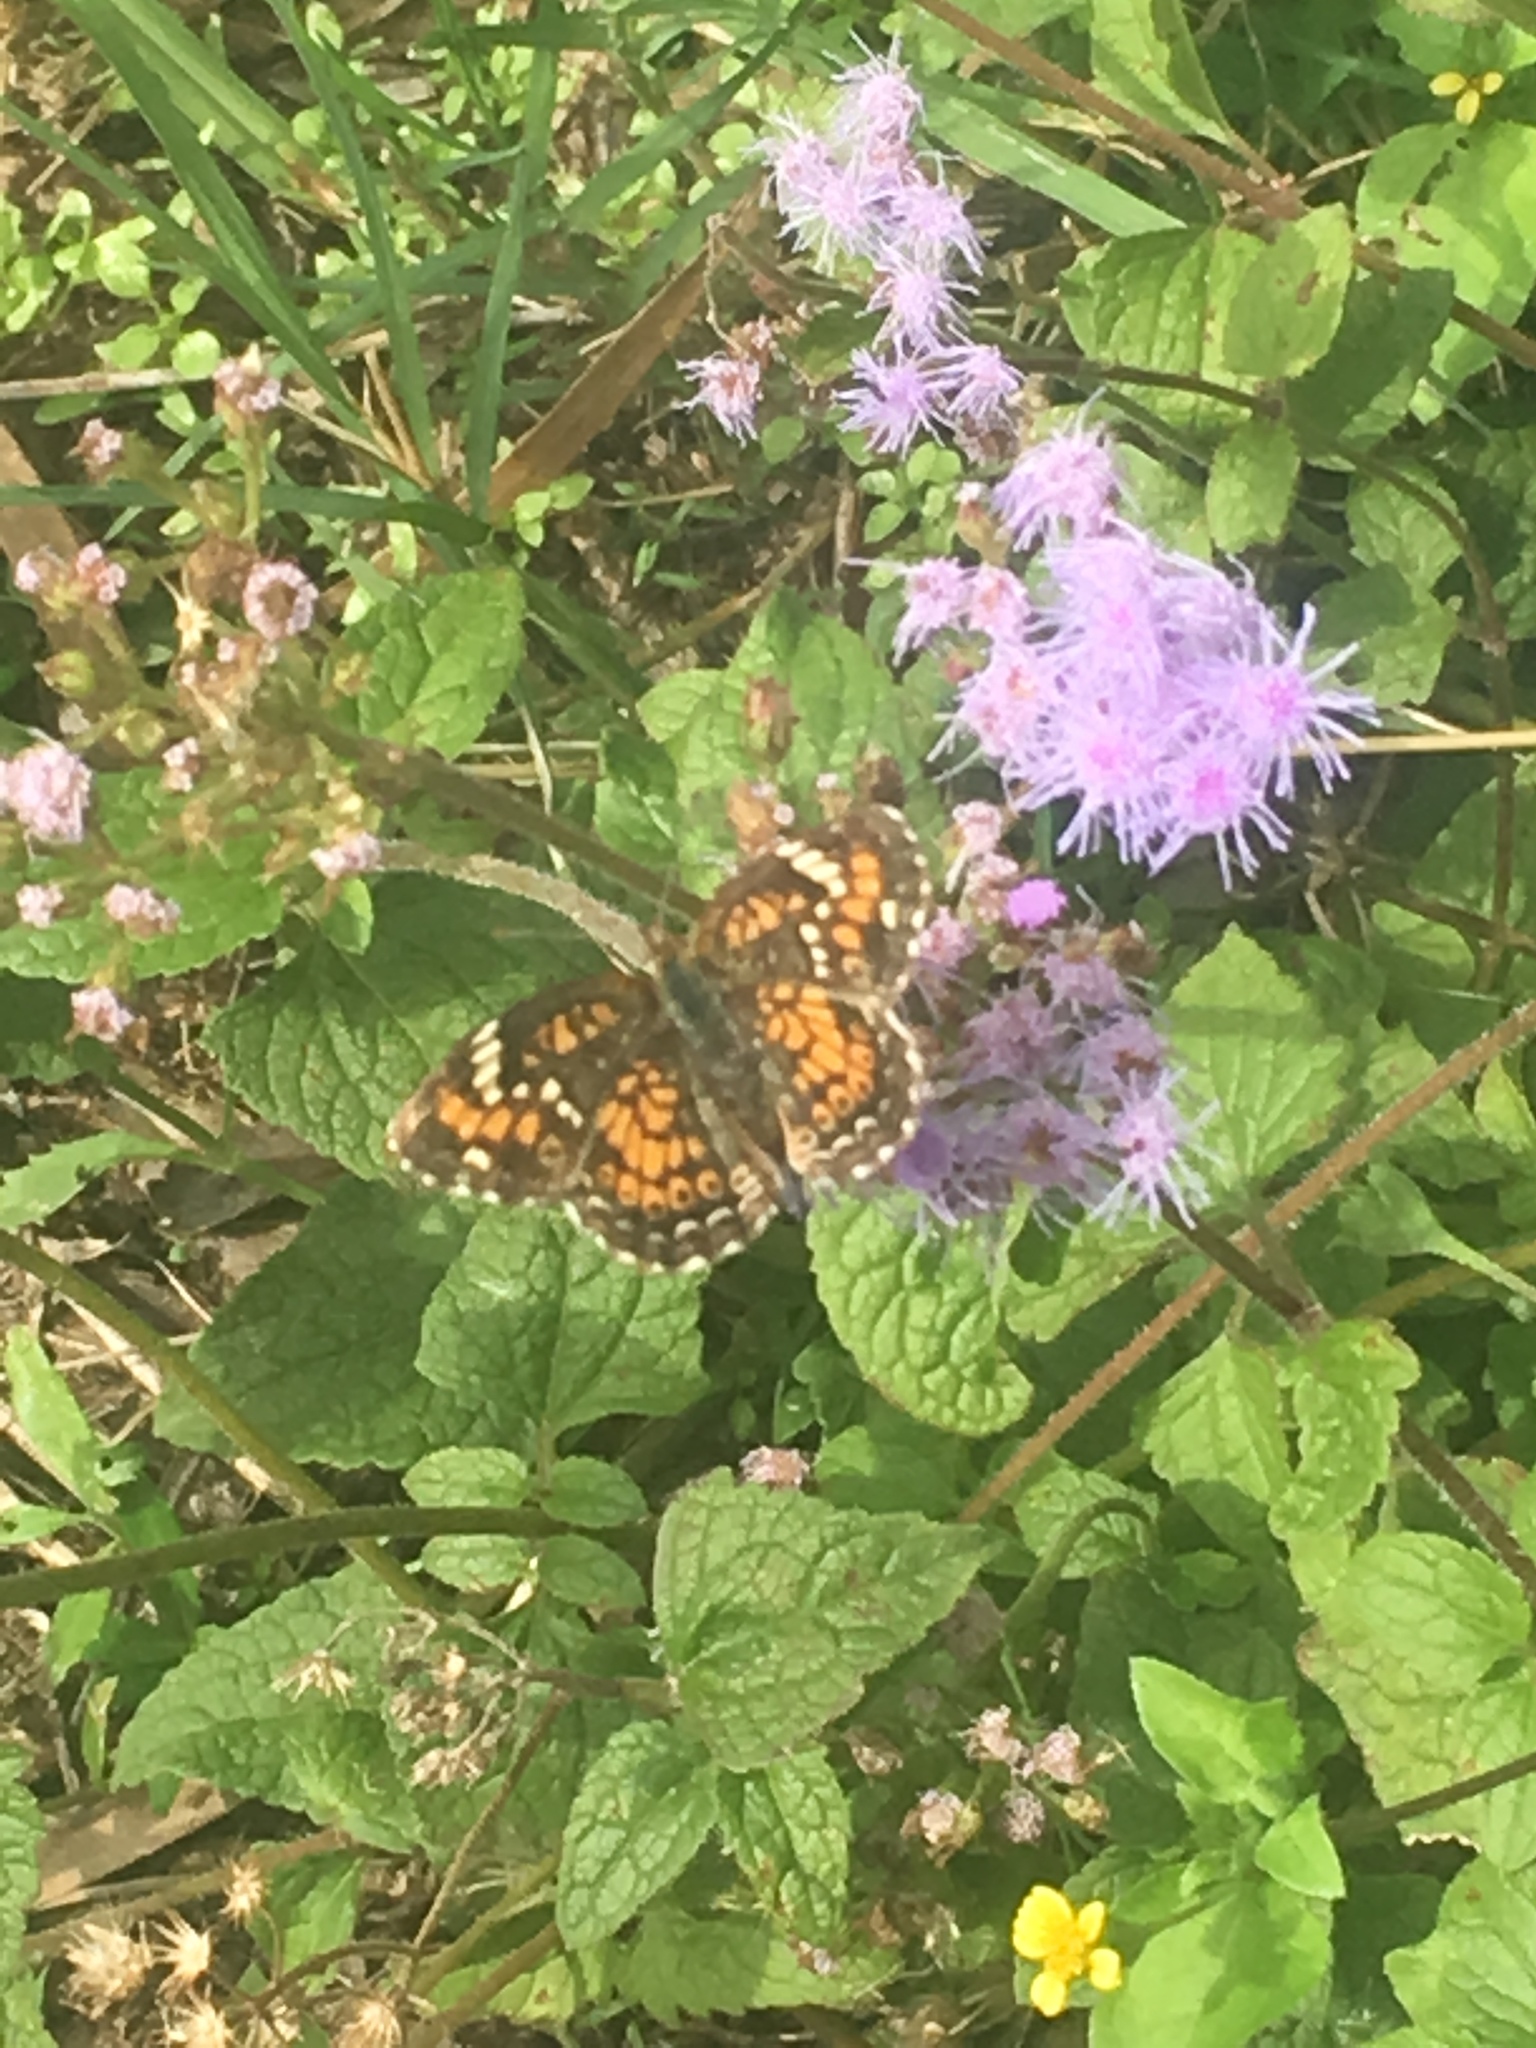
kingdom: Animalia
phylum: Arthropoda
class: Insecta
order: Lepidoptera
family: Nymphalidae
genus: Phyciodes
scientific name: Phyciodes phaon
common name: Phaon crescent
